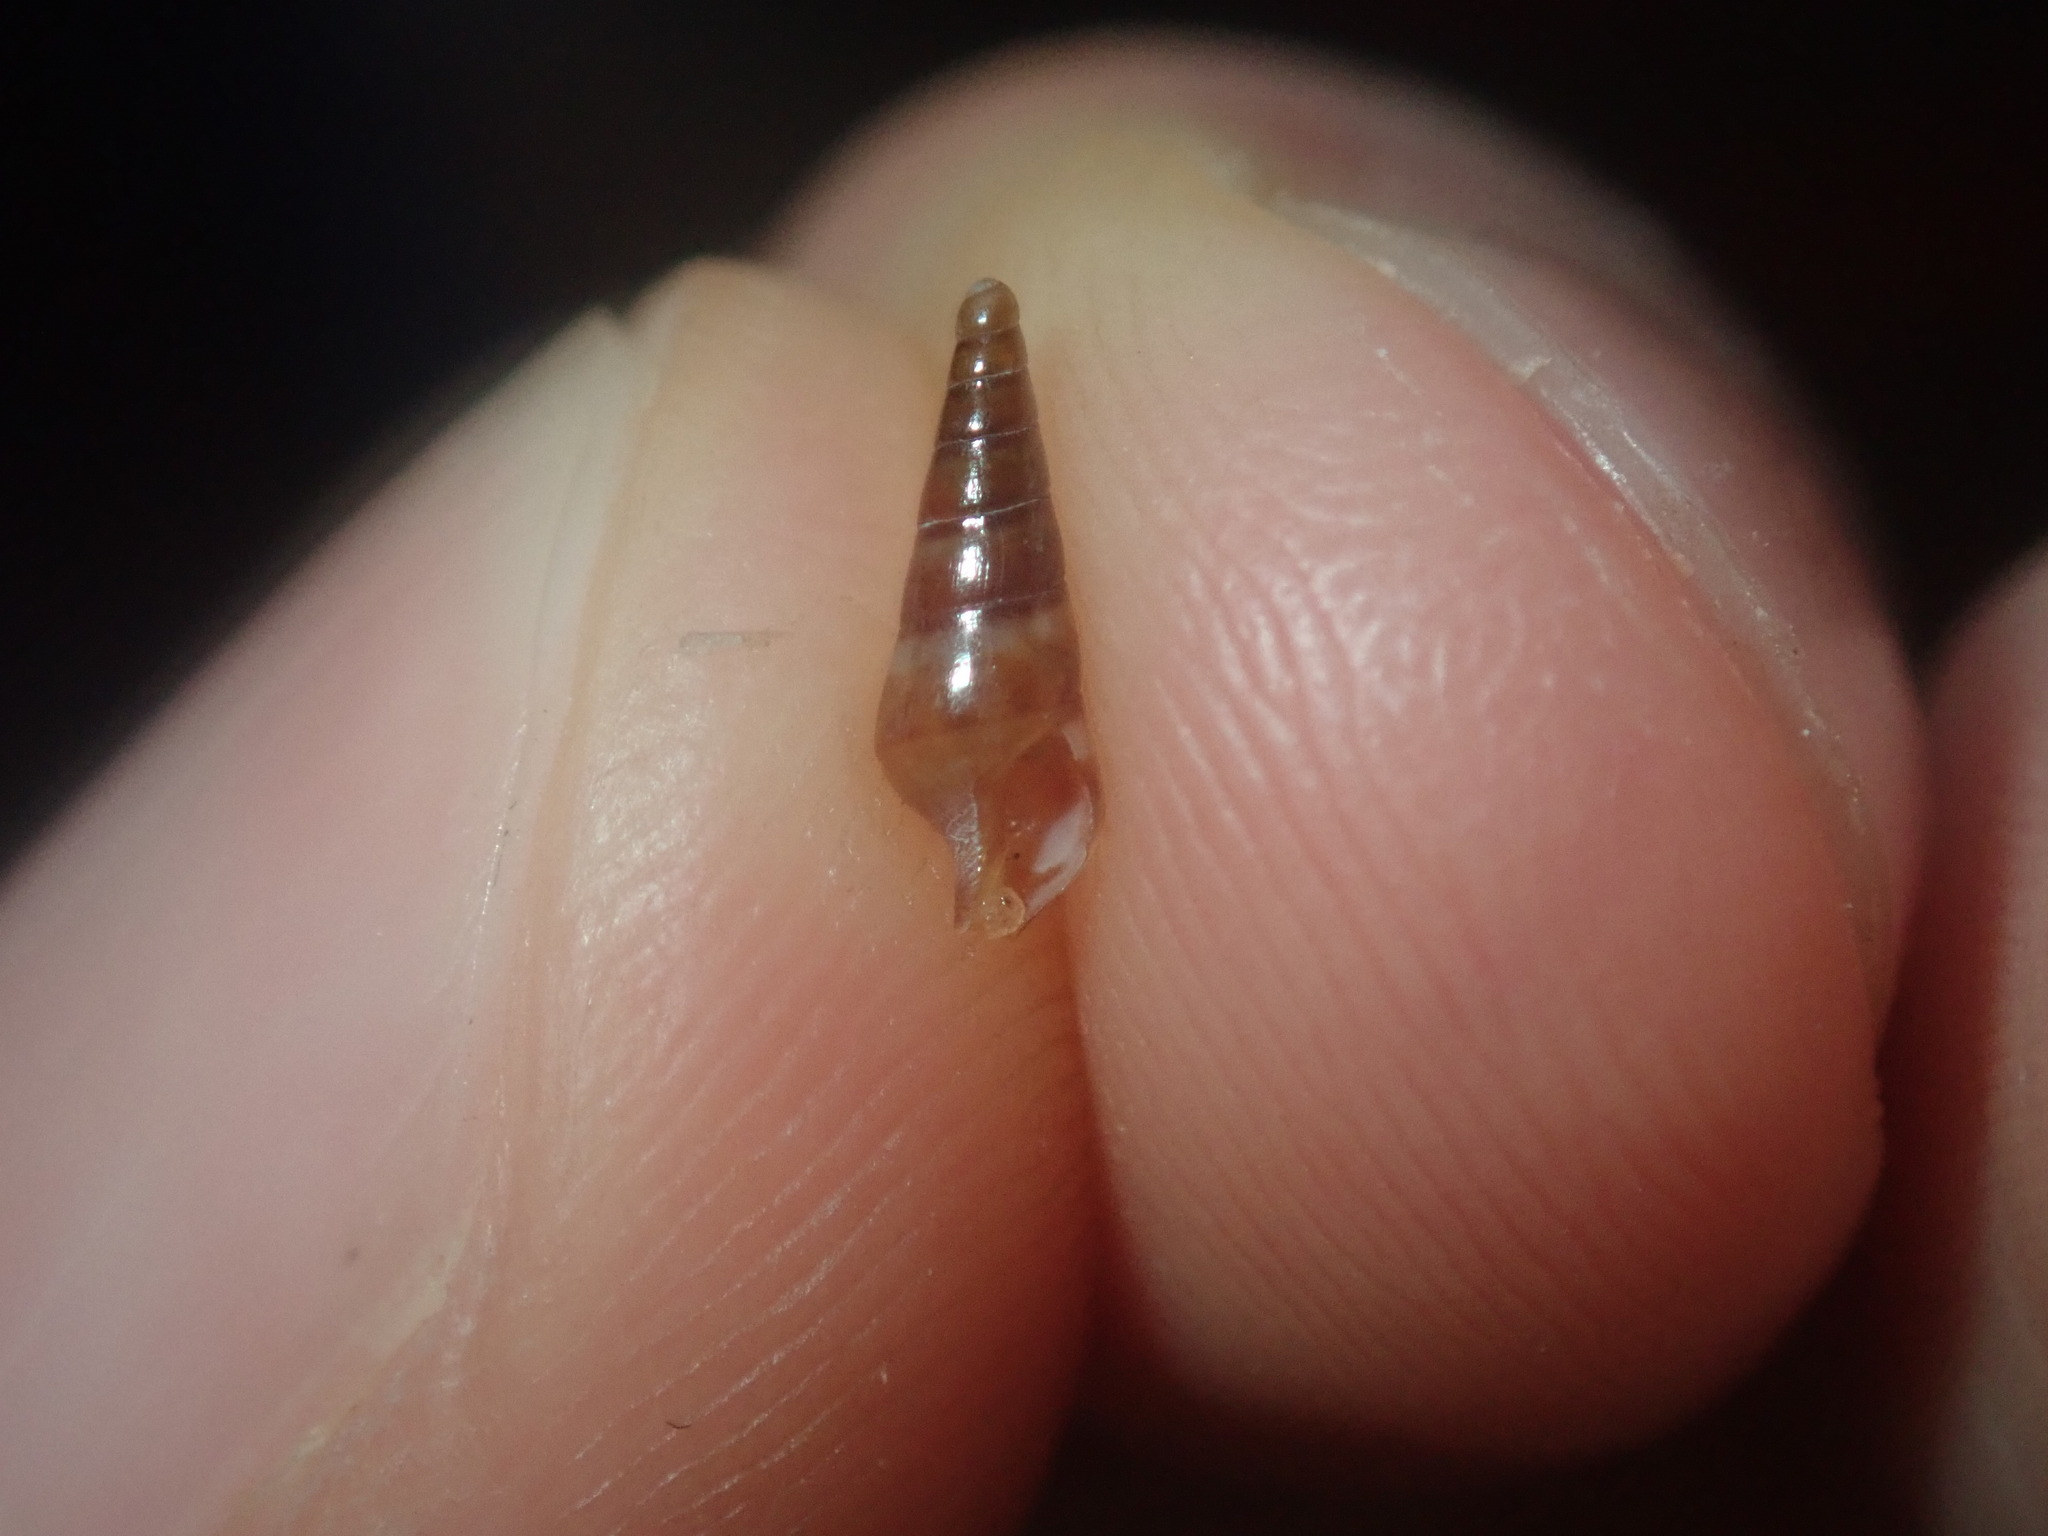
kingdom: Animalia
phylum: Mollusca
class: Gastropoda
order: Neogastropoda
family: Columbellidae
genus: Zella
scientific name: Zella beddomei
